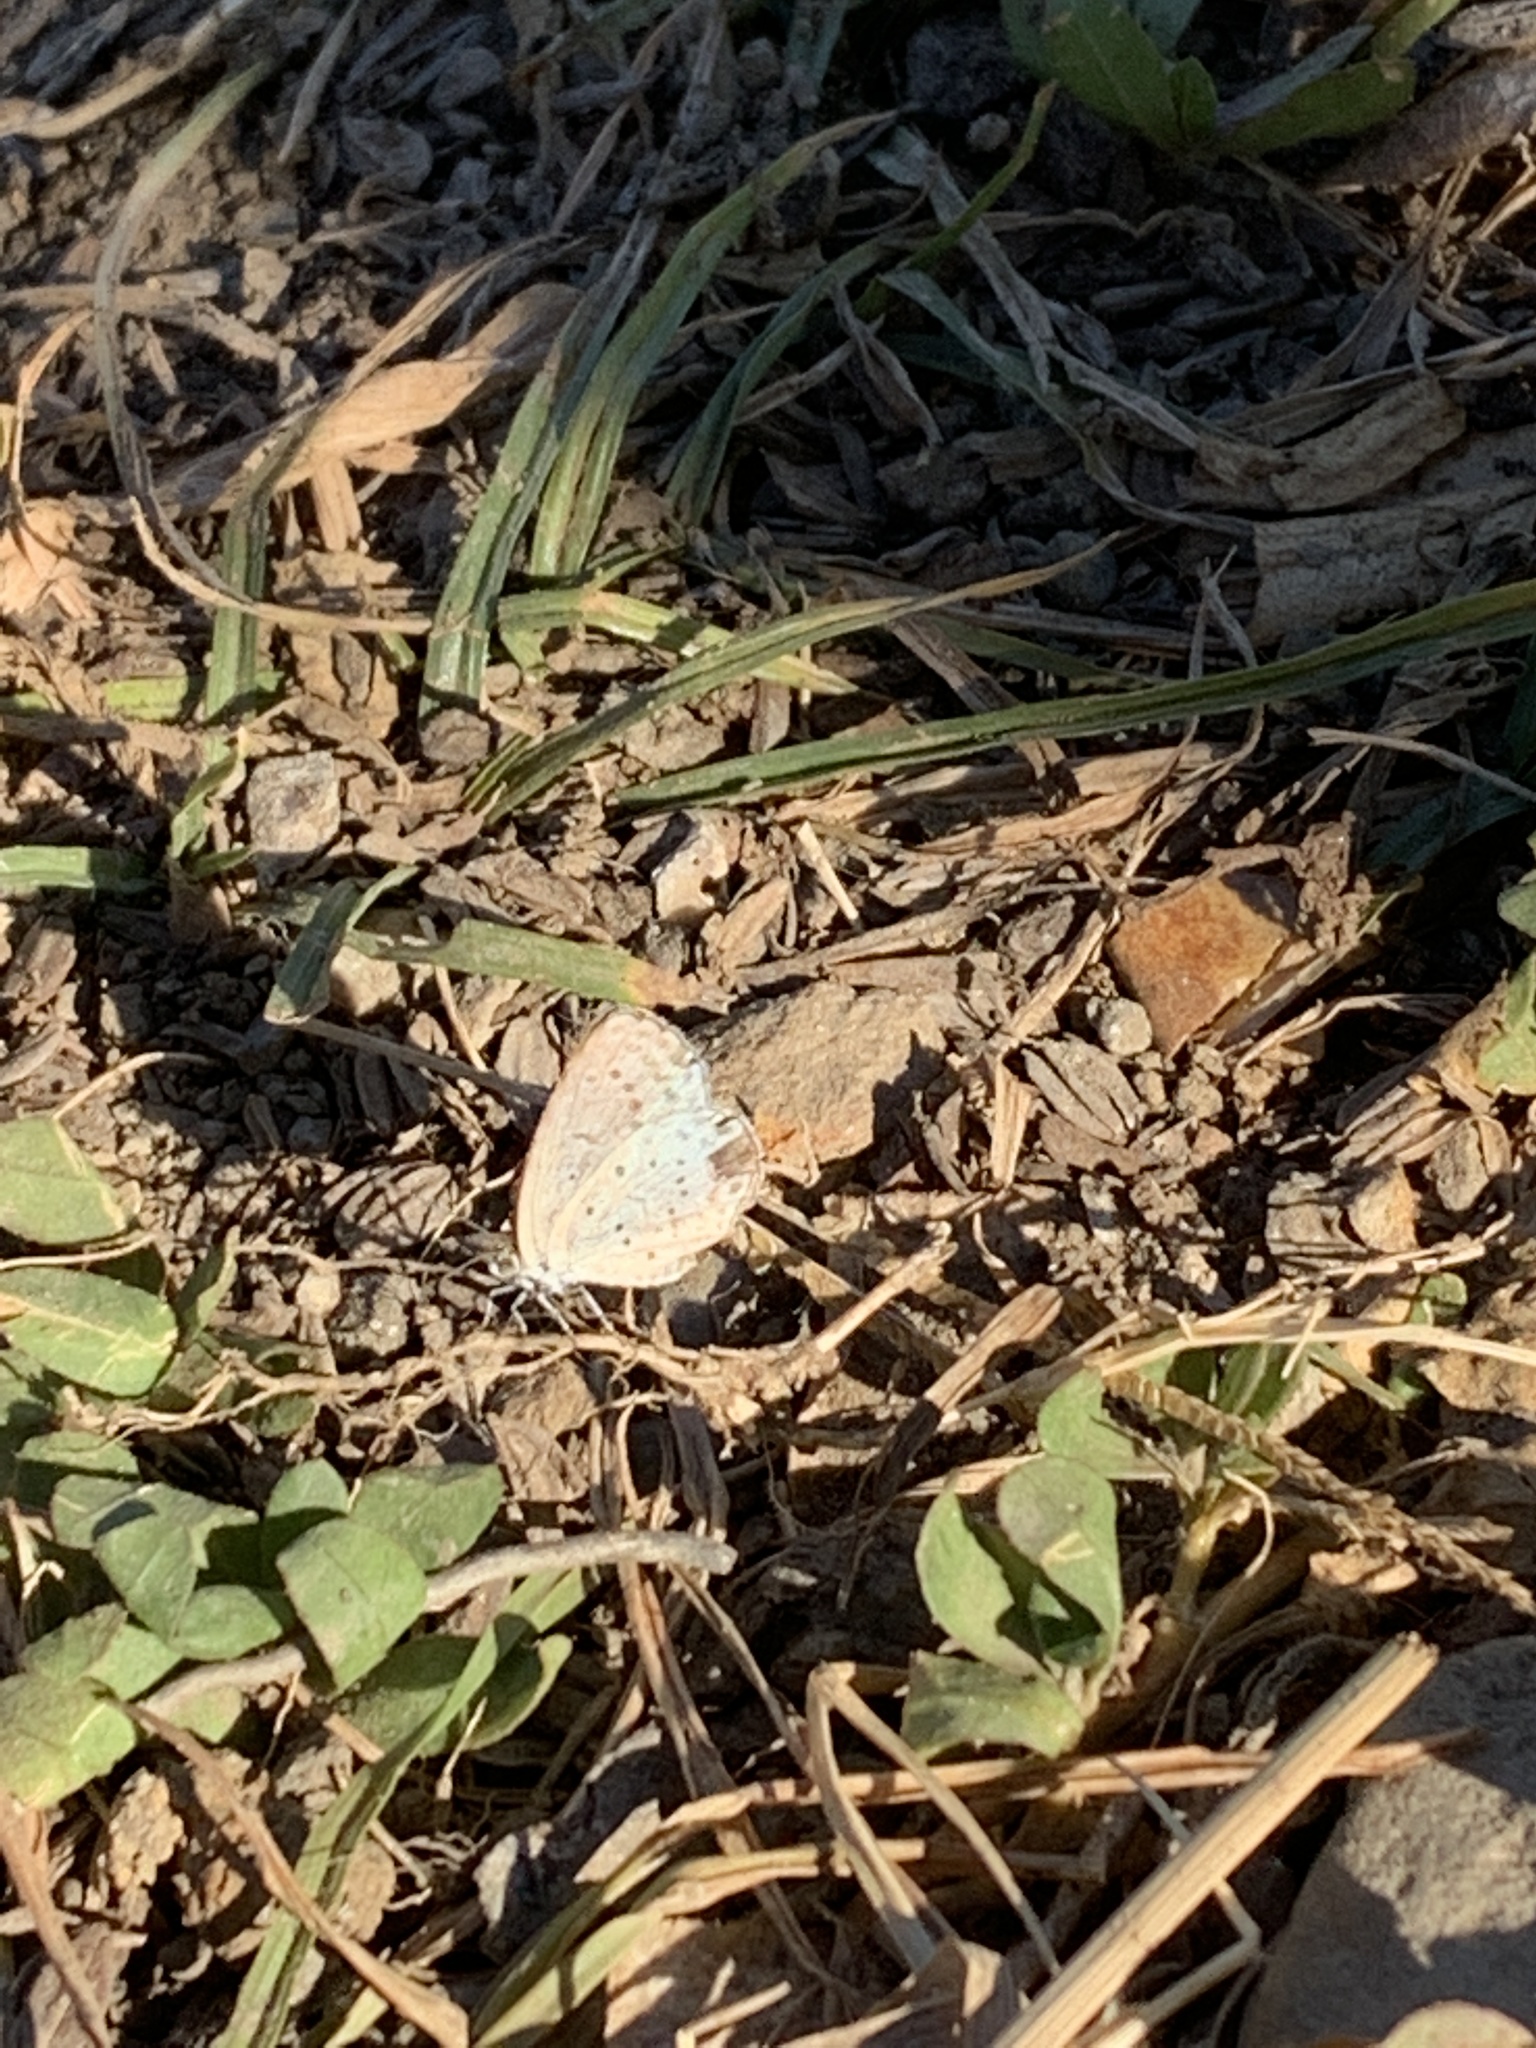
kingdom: Animalia
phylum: Arthropoda
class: Insecta
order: Lepidoptera
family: Lycaenidae
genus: Pseudozizeeria
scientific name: Pseudozizeeria maha
